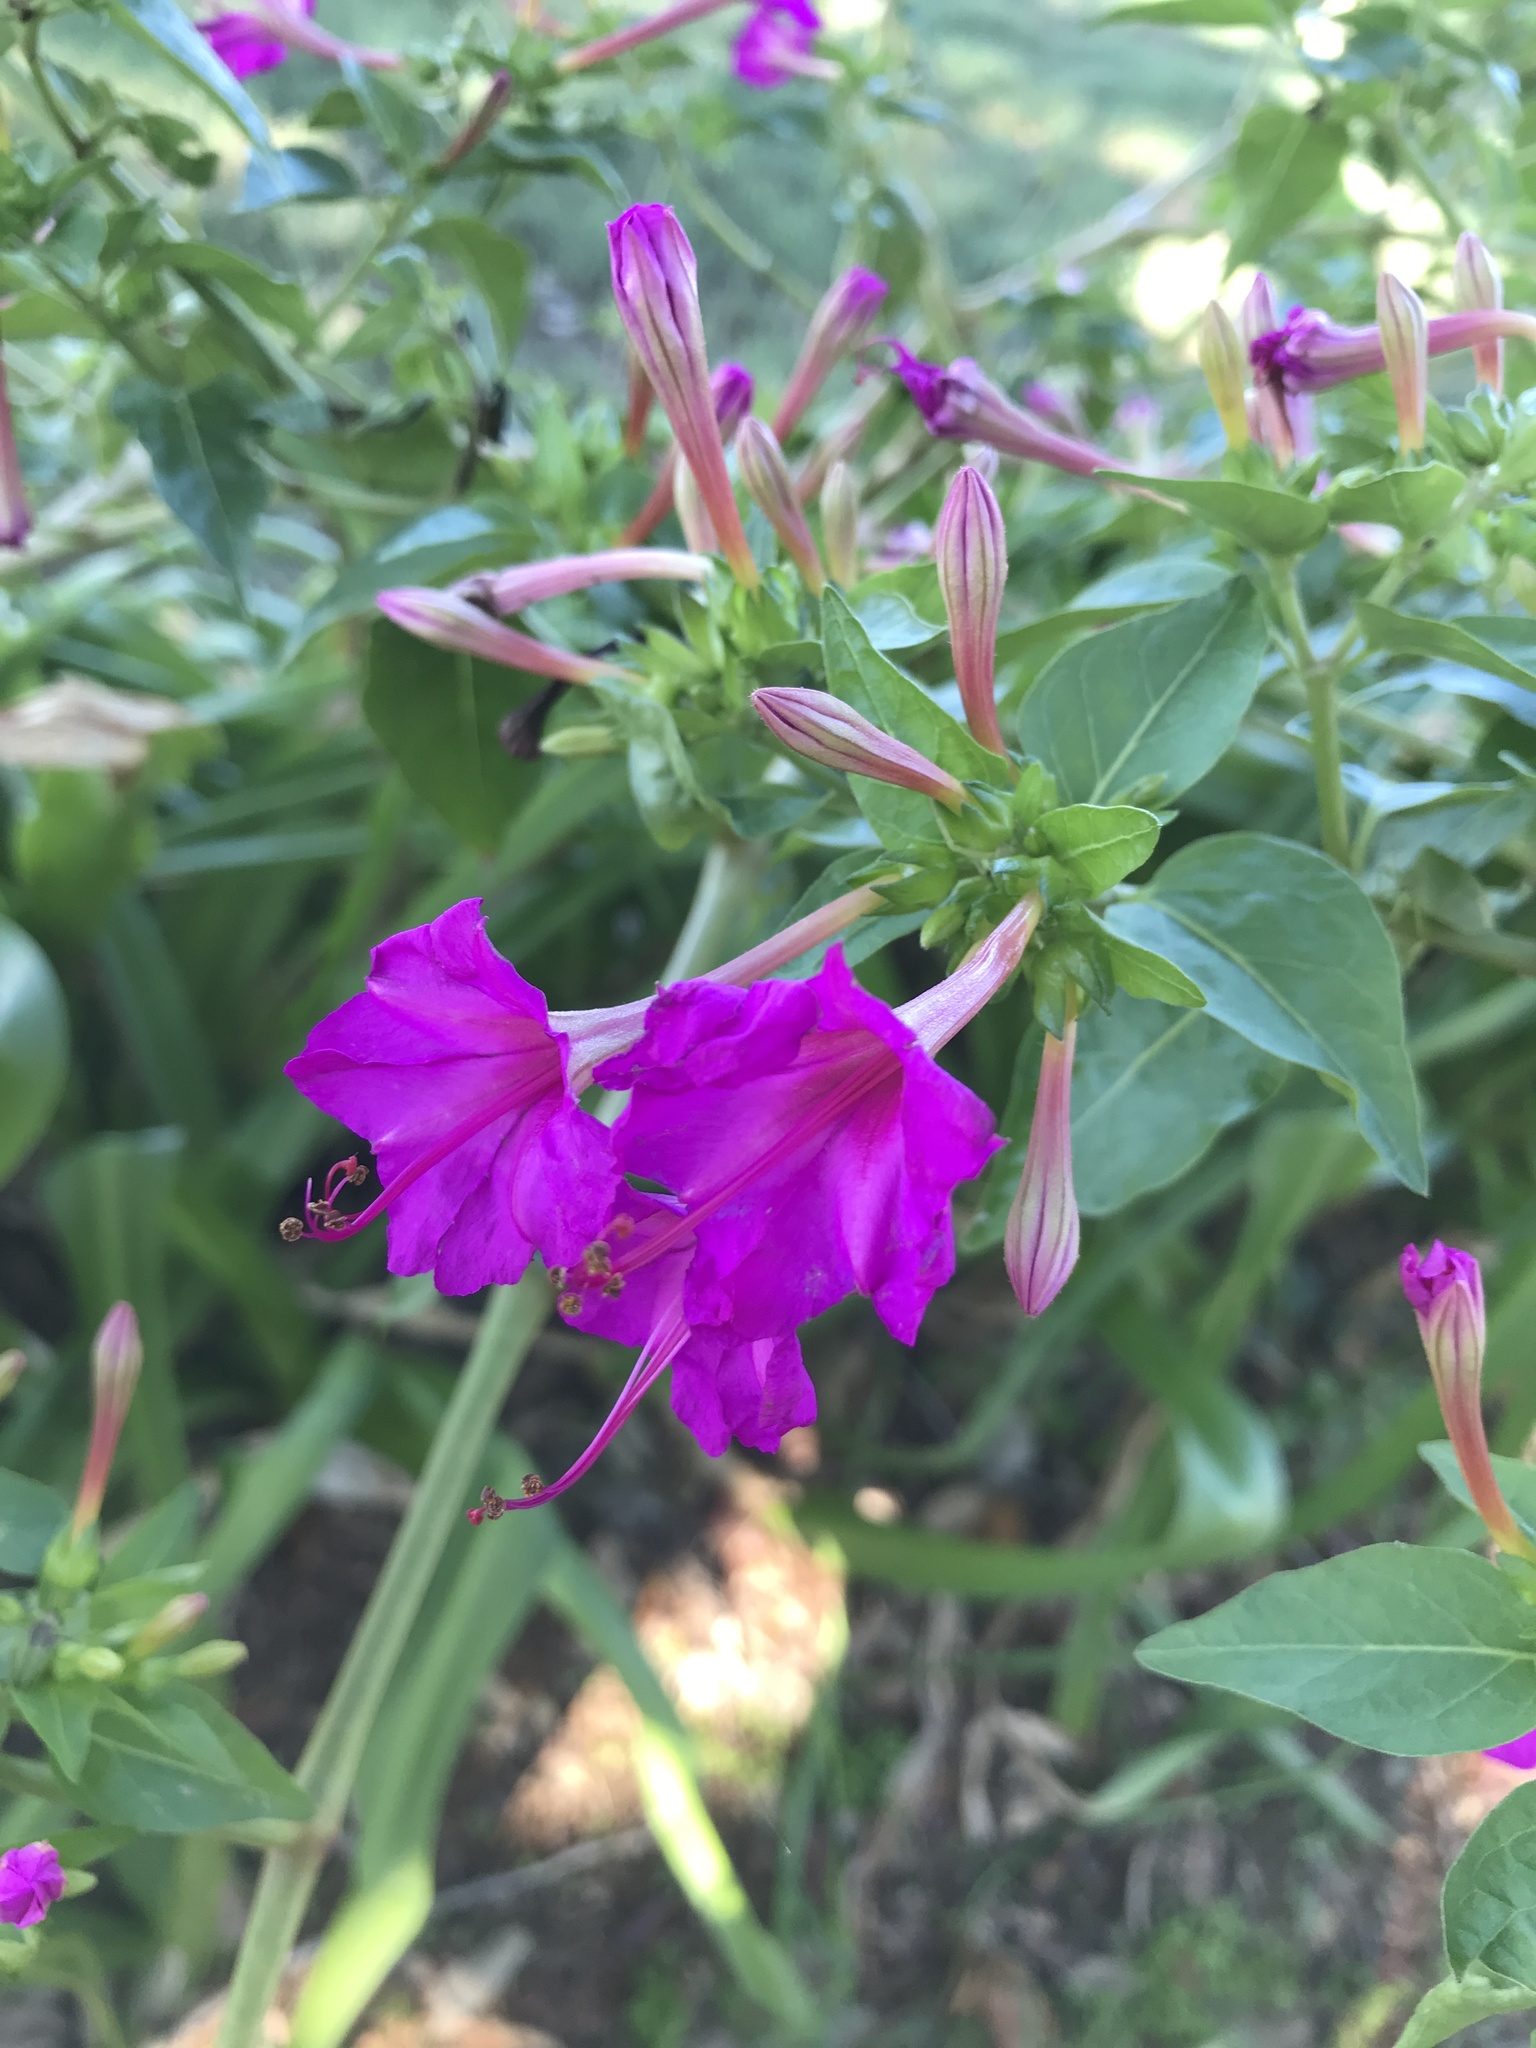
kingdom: Plantae
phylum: Tracheophyta
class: Magnoliopsida
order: Caryophyllales
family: Nyctaginaceae
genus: Mirabilis
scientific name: Mirabilis jalapa
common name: Marvel-of-peru
